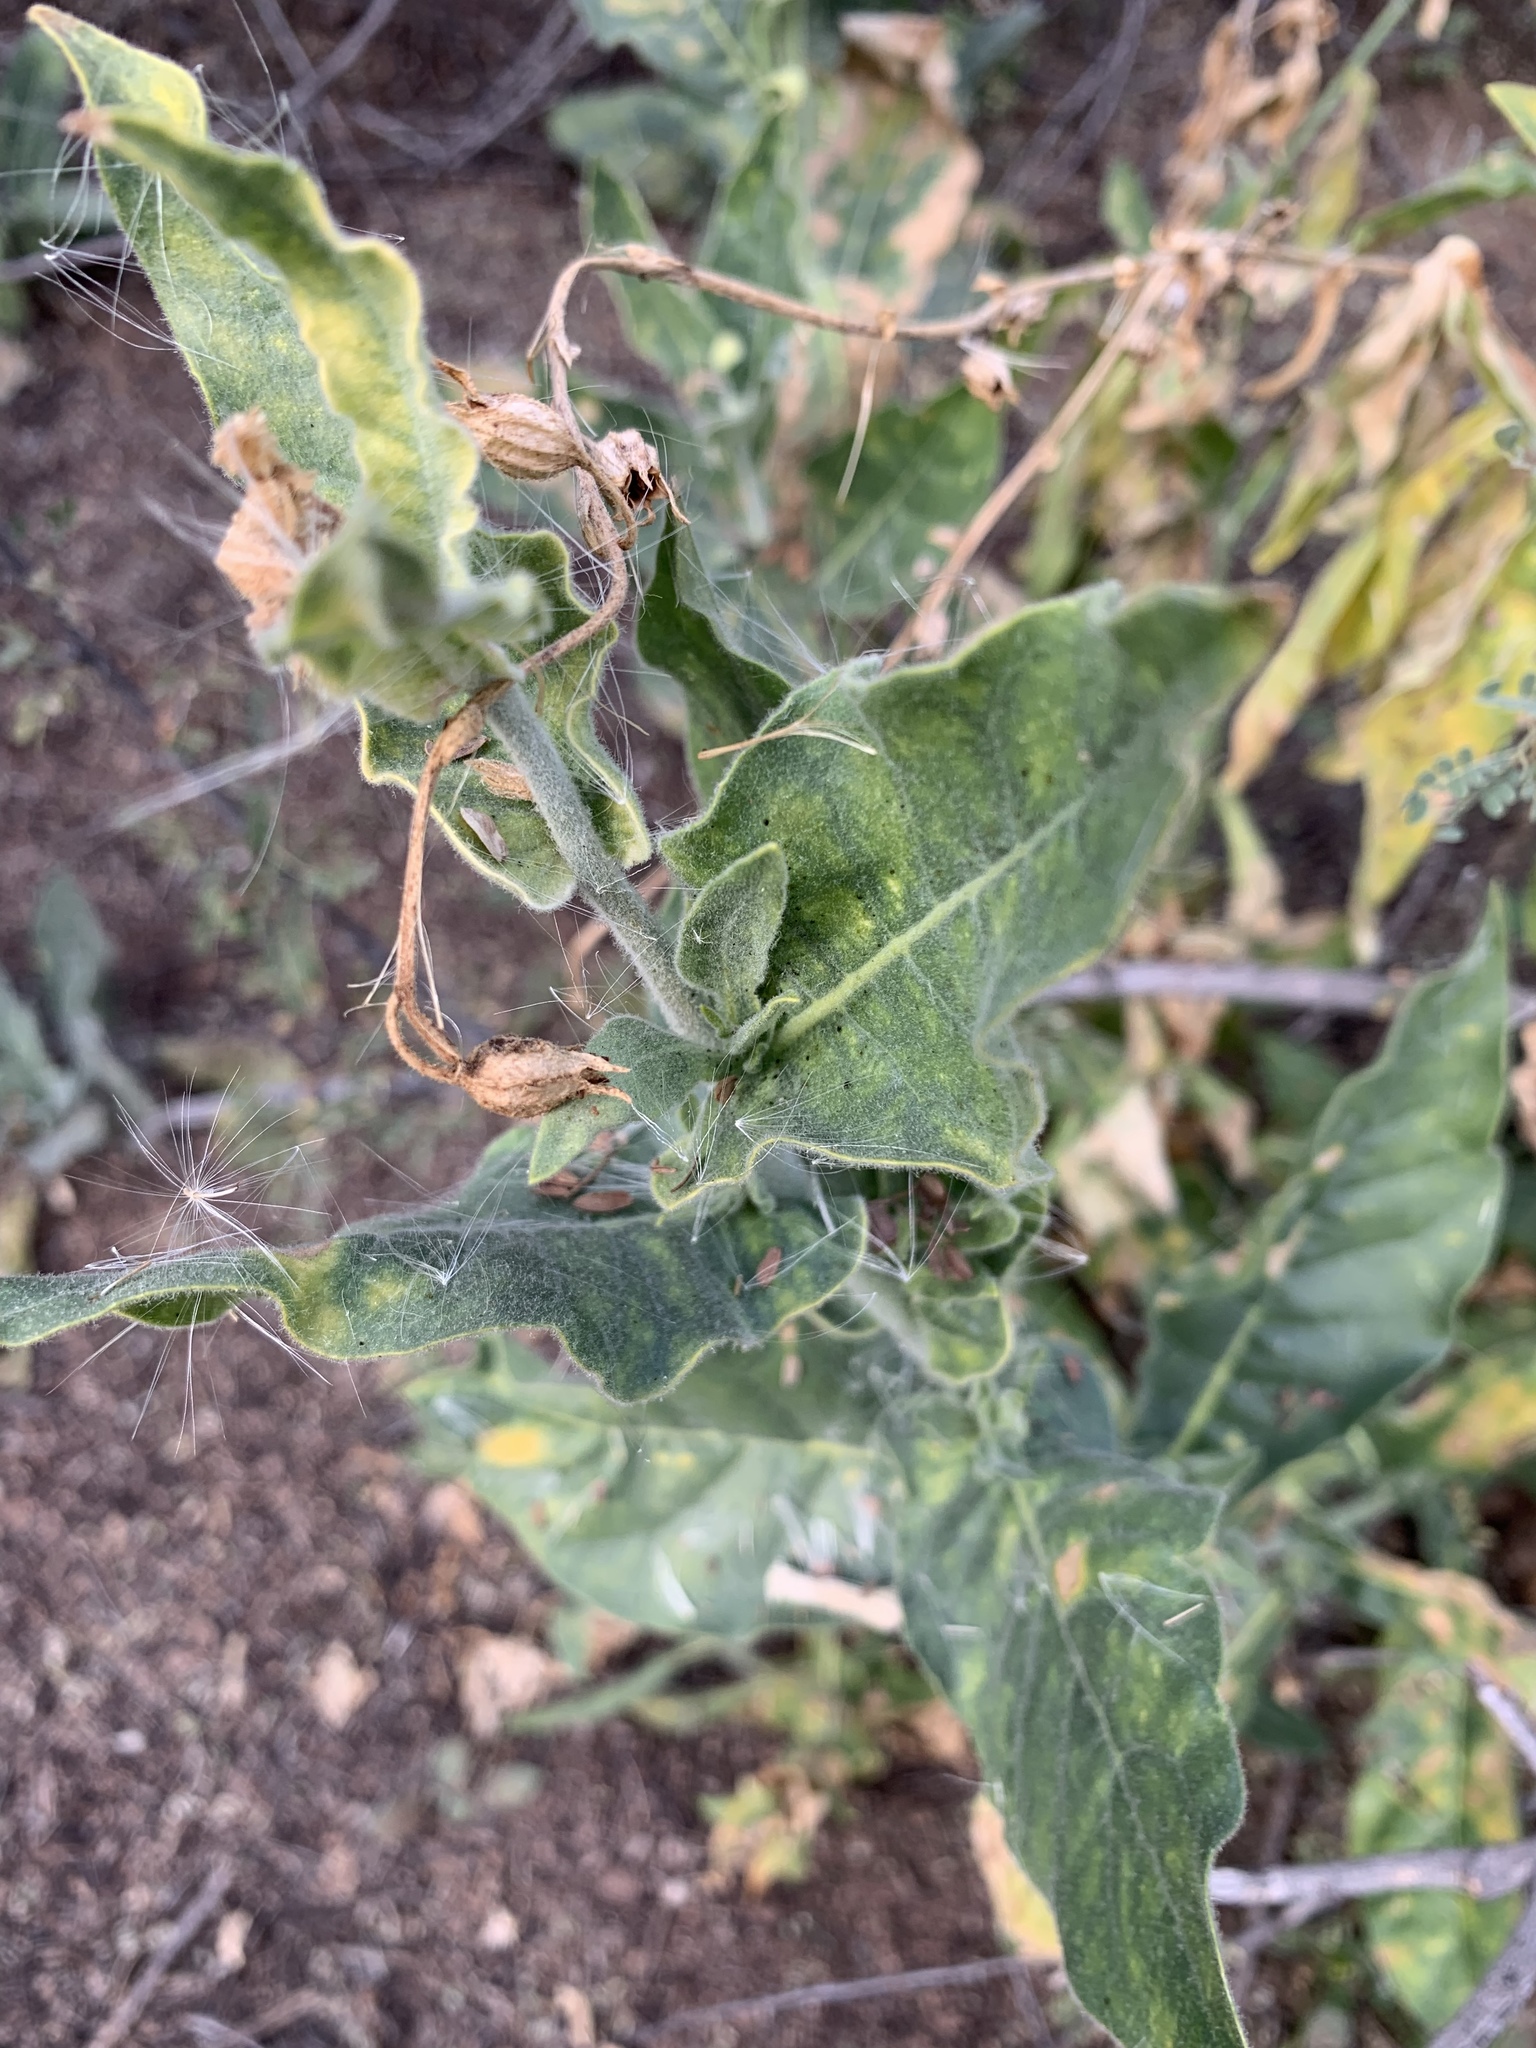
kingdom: Plantae
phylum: Tracheophyta
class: Magnoliopsida
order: Solanales
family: Solanaceae
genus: Nicotiana
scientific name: Nicotiana obtusifolia
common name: Desert tobacco
